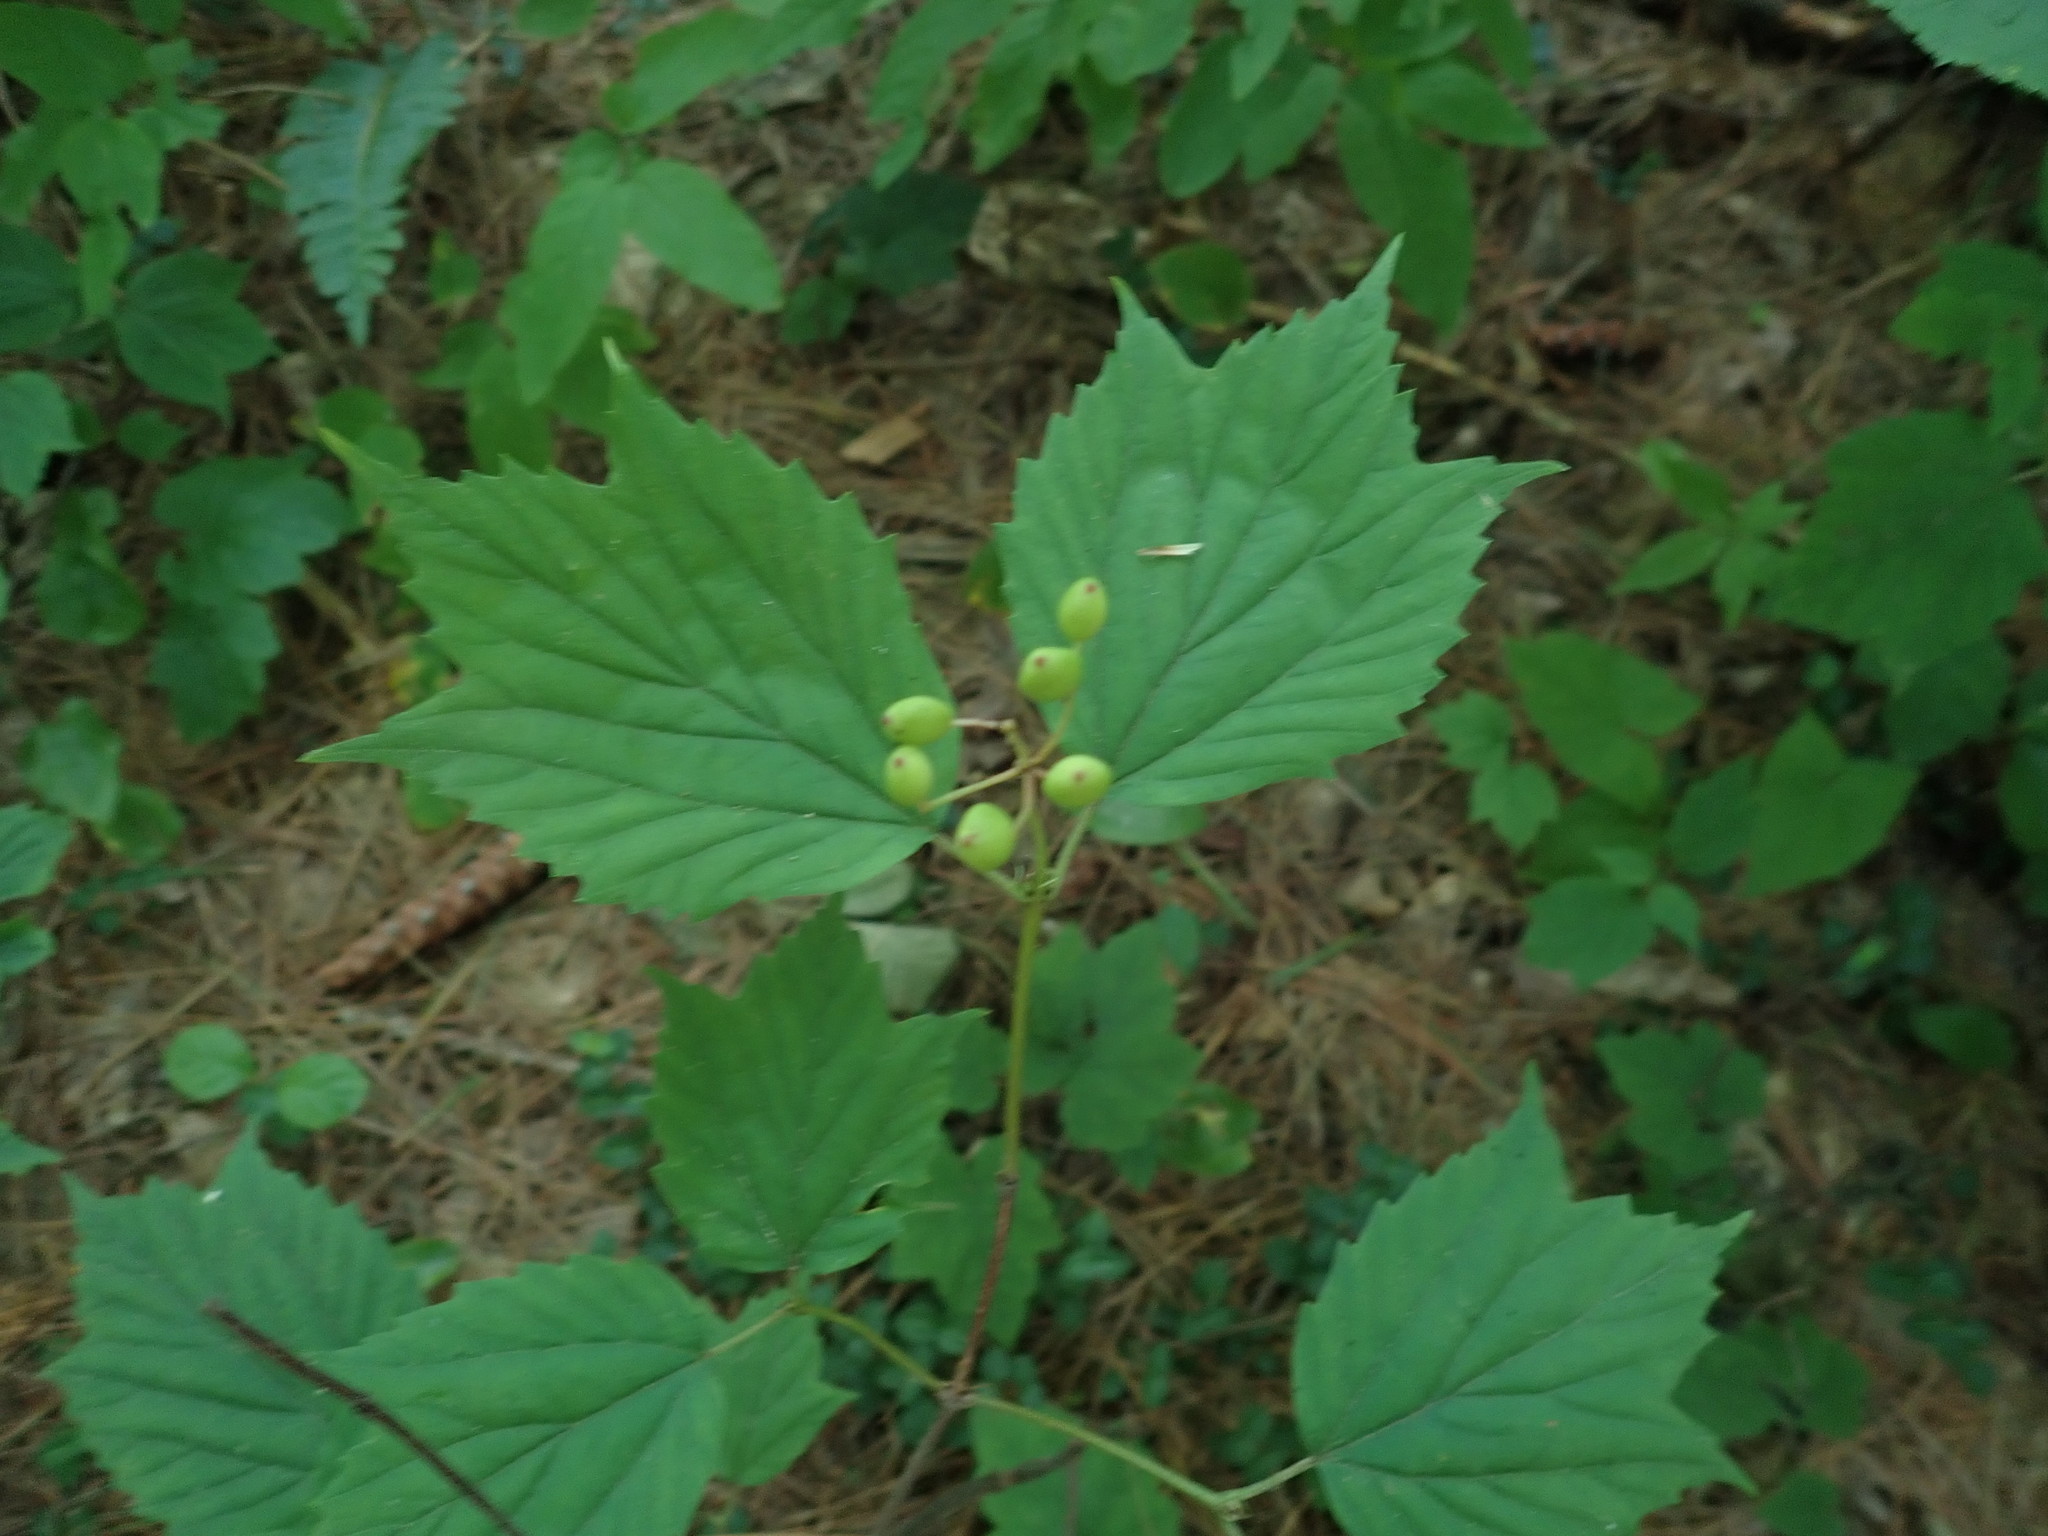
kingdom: Plantae
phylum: Tracheophyta
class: Magnoliopsida
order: Dipsacales
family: Viburnaceae
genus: Viburnum
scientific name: Viburnum acerifolium
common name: Dockmackie
